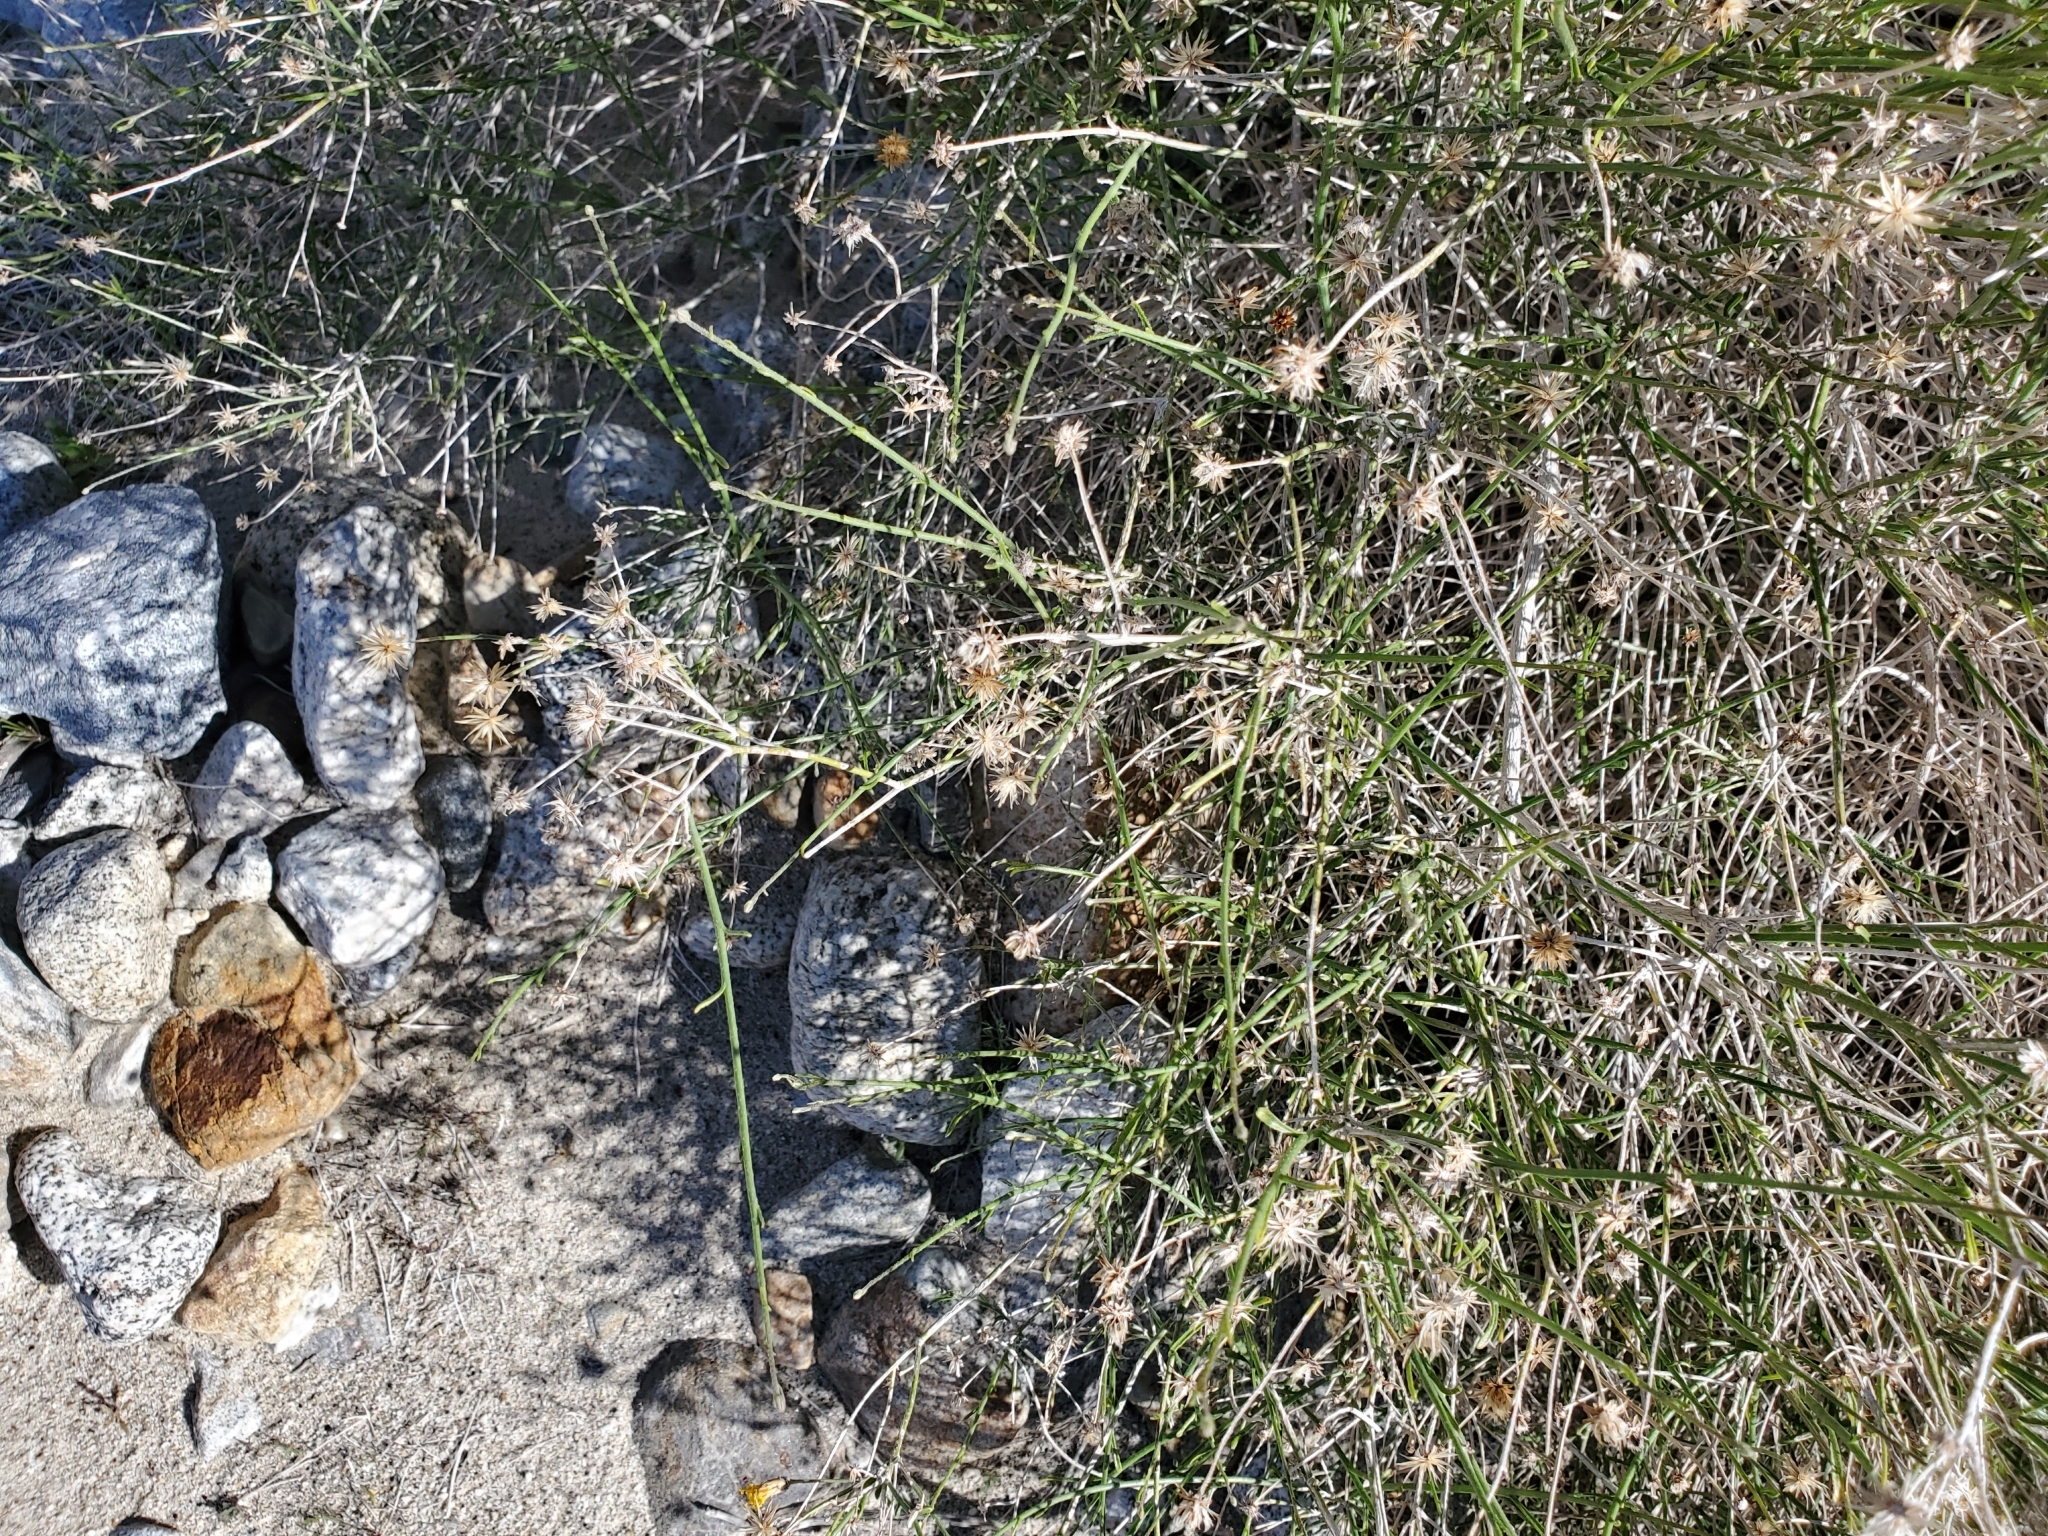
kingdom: Plantae
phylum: Tracheophyta
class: Magnoliopsida
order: Asterales
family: Asteraceae
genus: Bebbia
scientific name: Bebbia juncea
